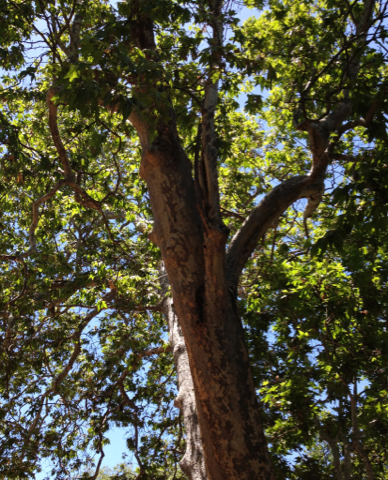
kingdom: Plantae
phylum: Tracheophyta
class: Magnoliopsida
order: Proteales
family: Platanaceae
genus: Platanus
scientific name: Platanus racemosa
